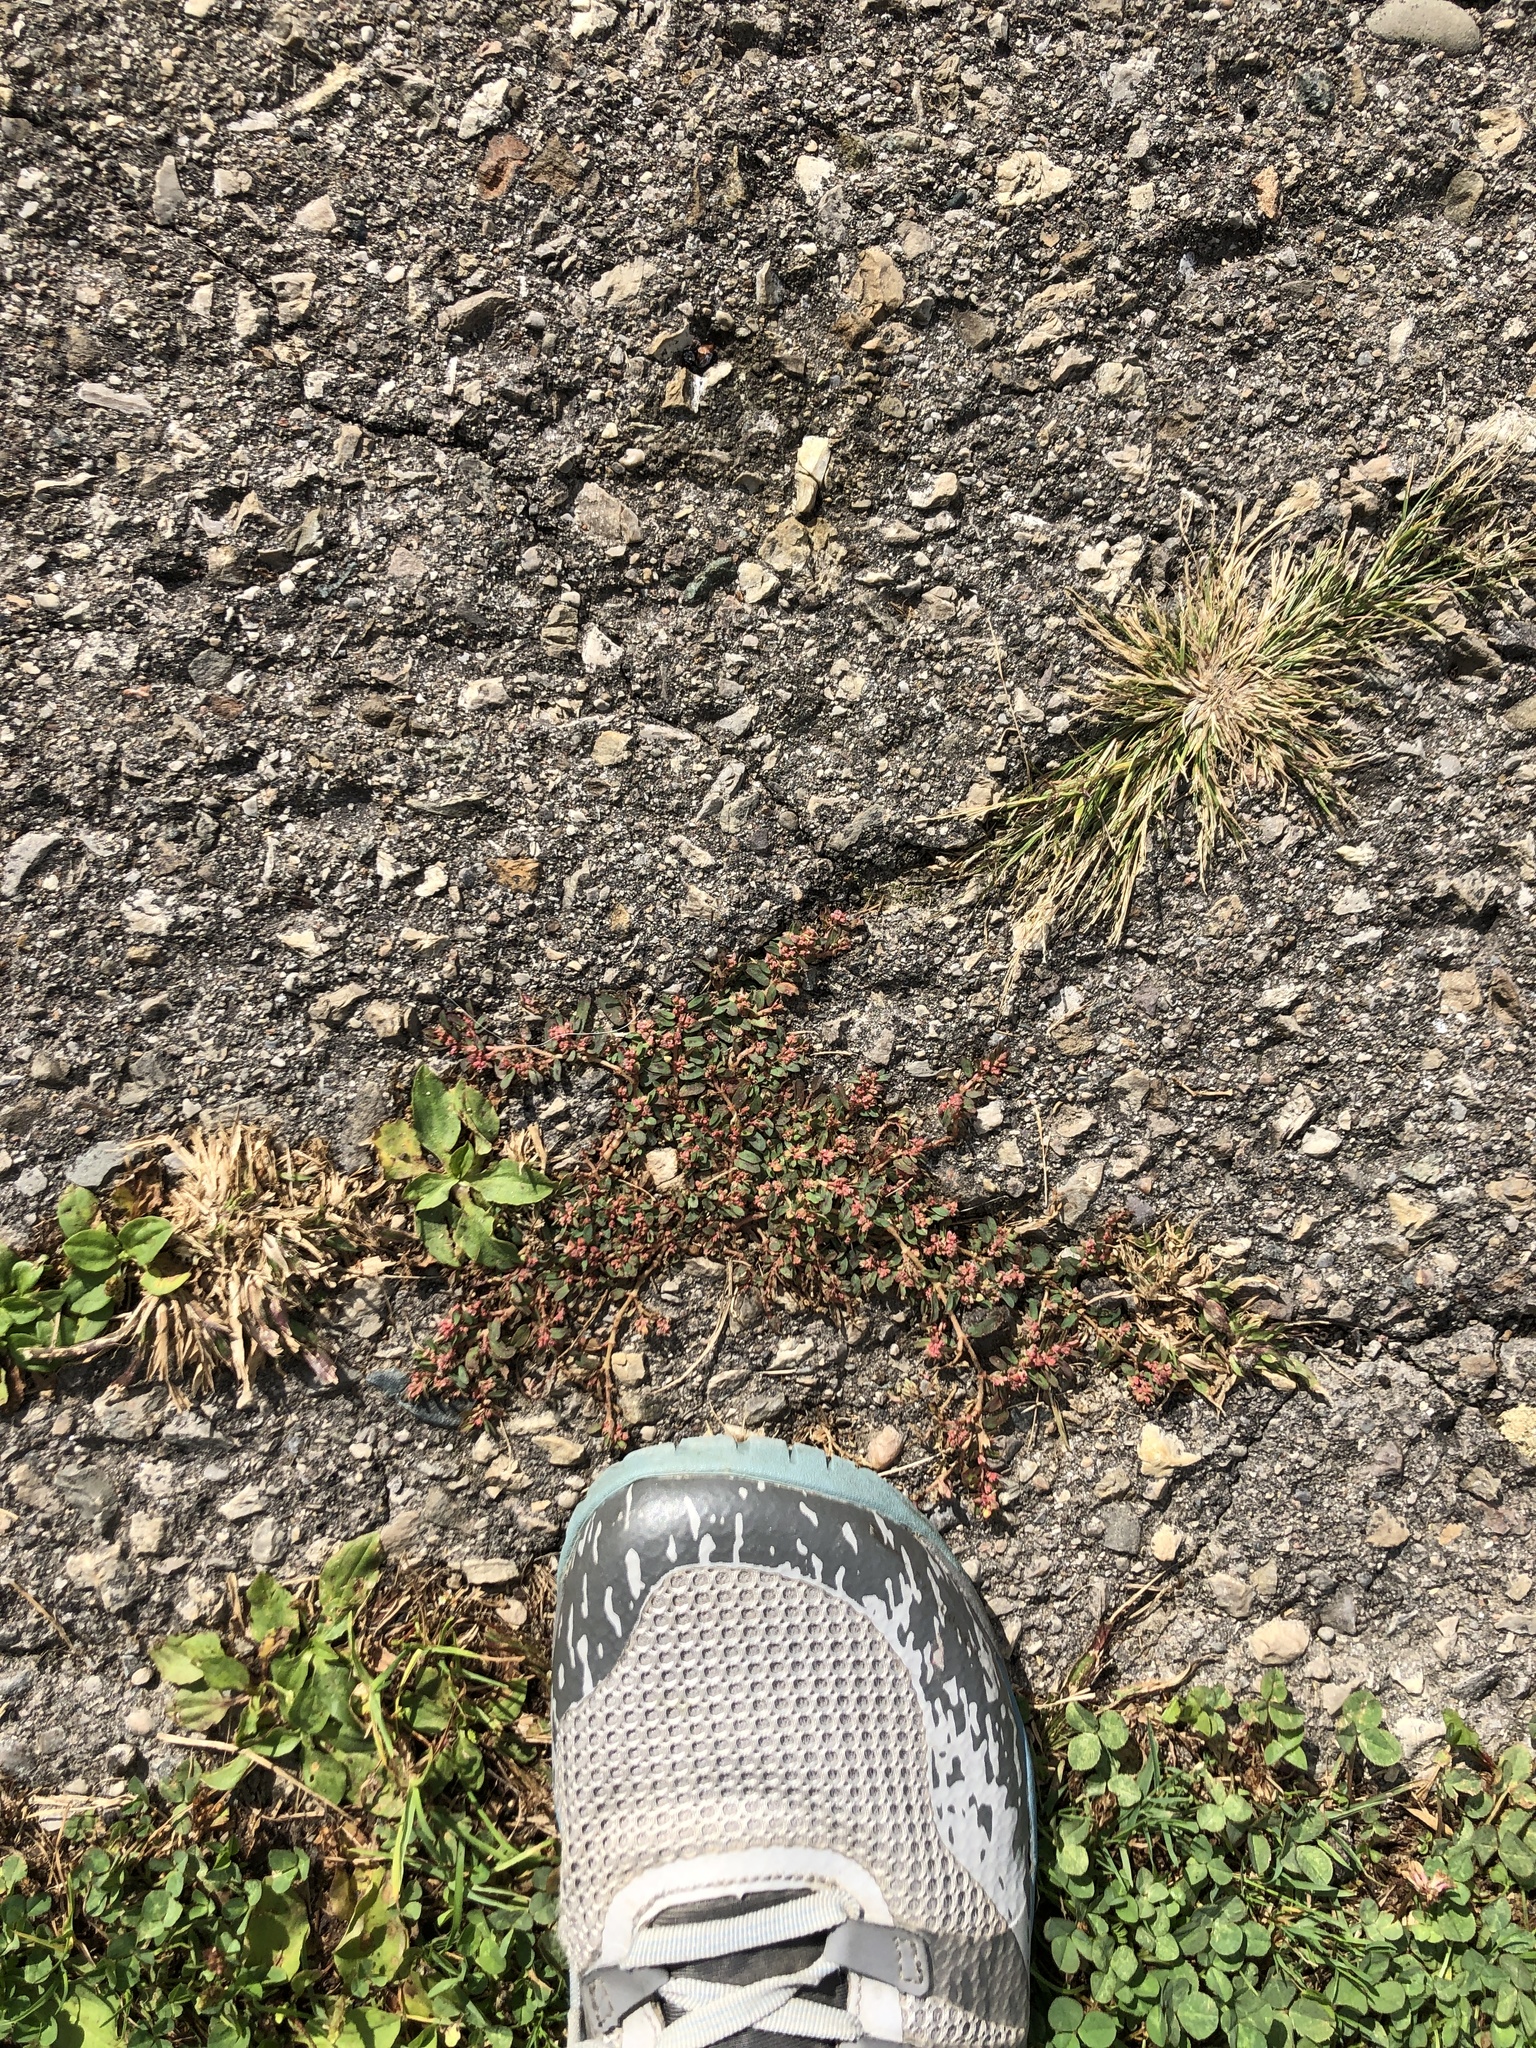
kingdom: Plantae
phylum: Tracheophyta
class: Magnoliopsida
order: Malpighiales
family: Euphorbiaceae
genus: Euphorbia
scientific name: Euphorbia maculata
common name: Spotted spurge
